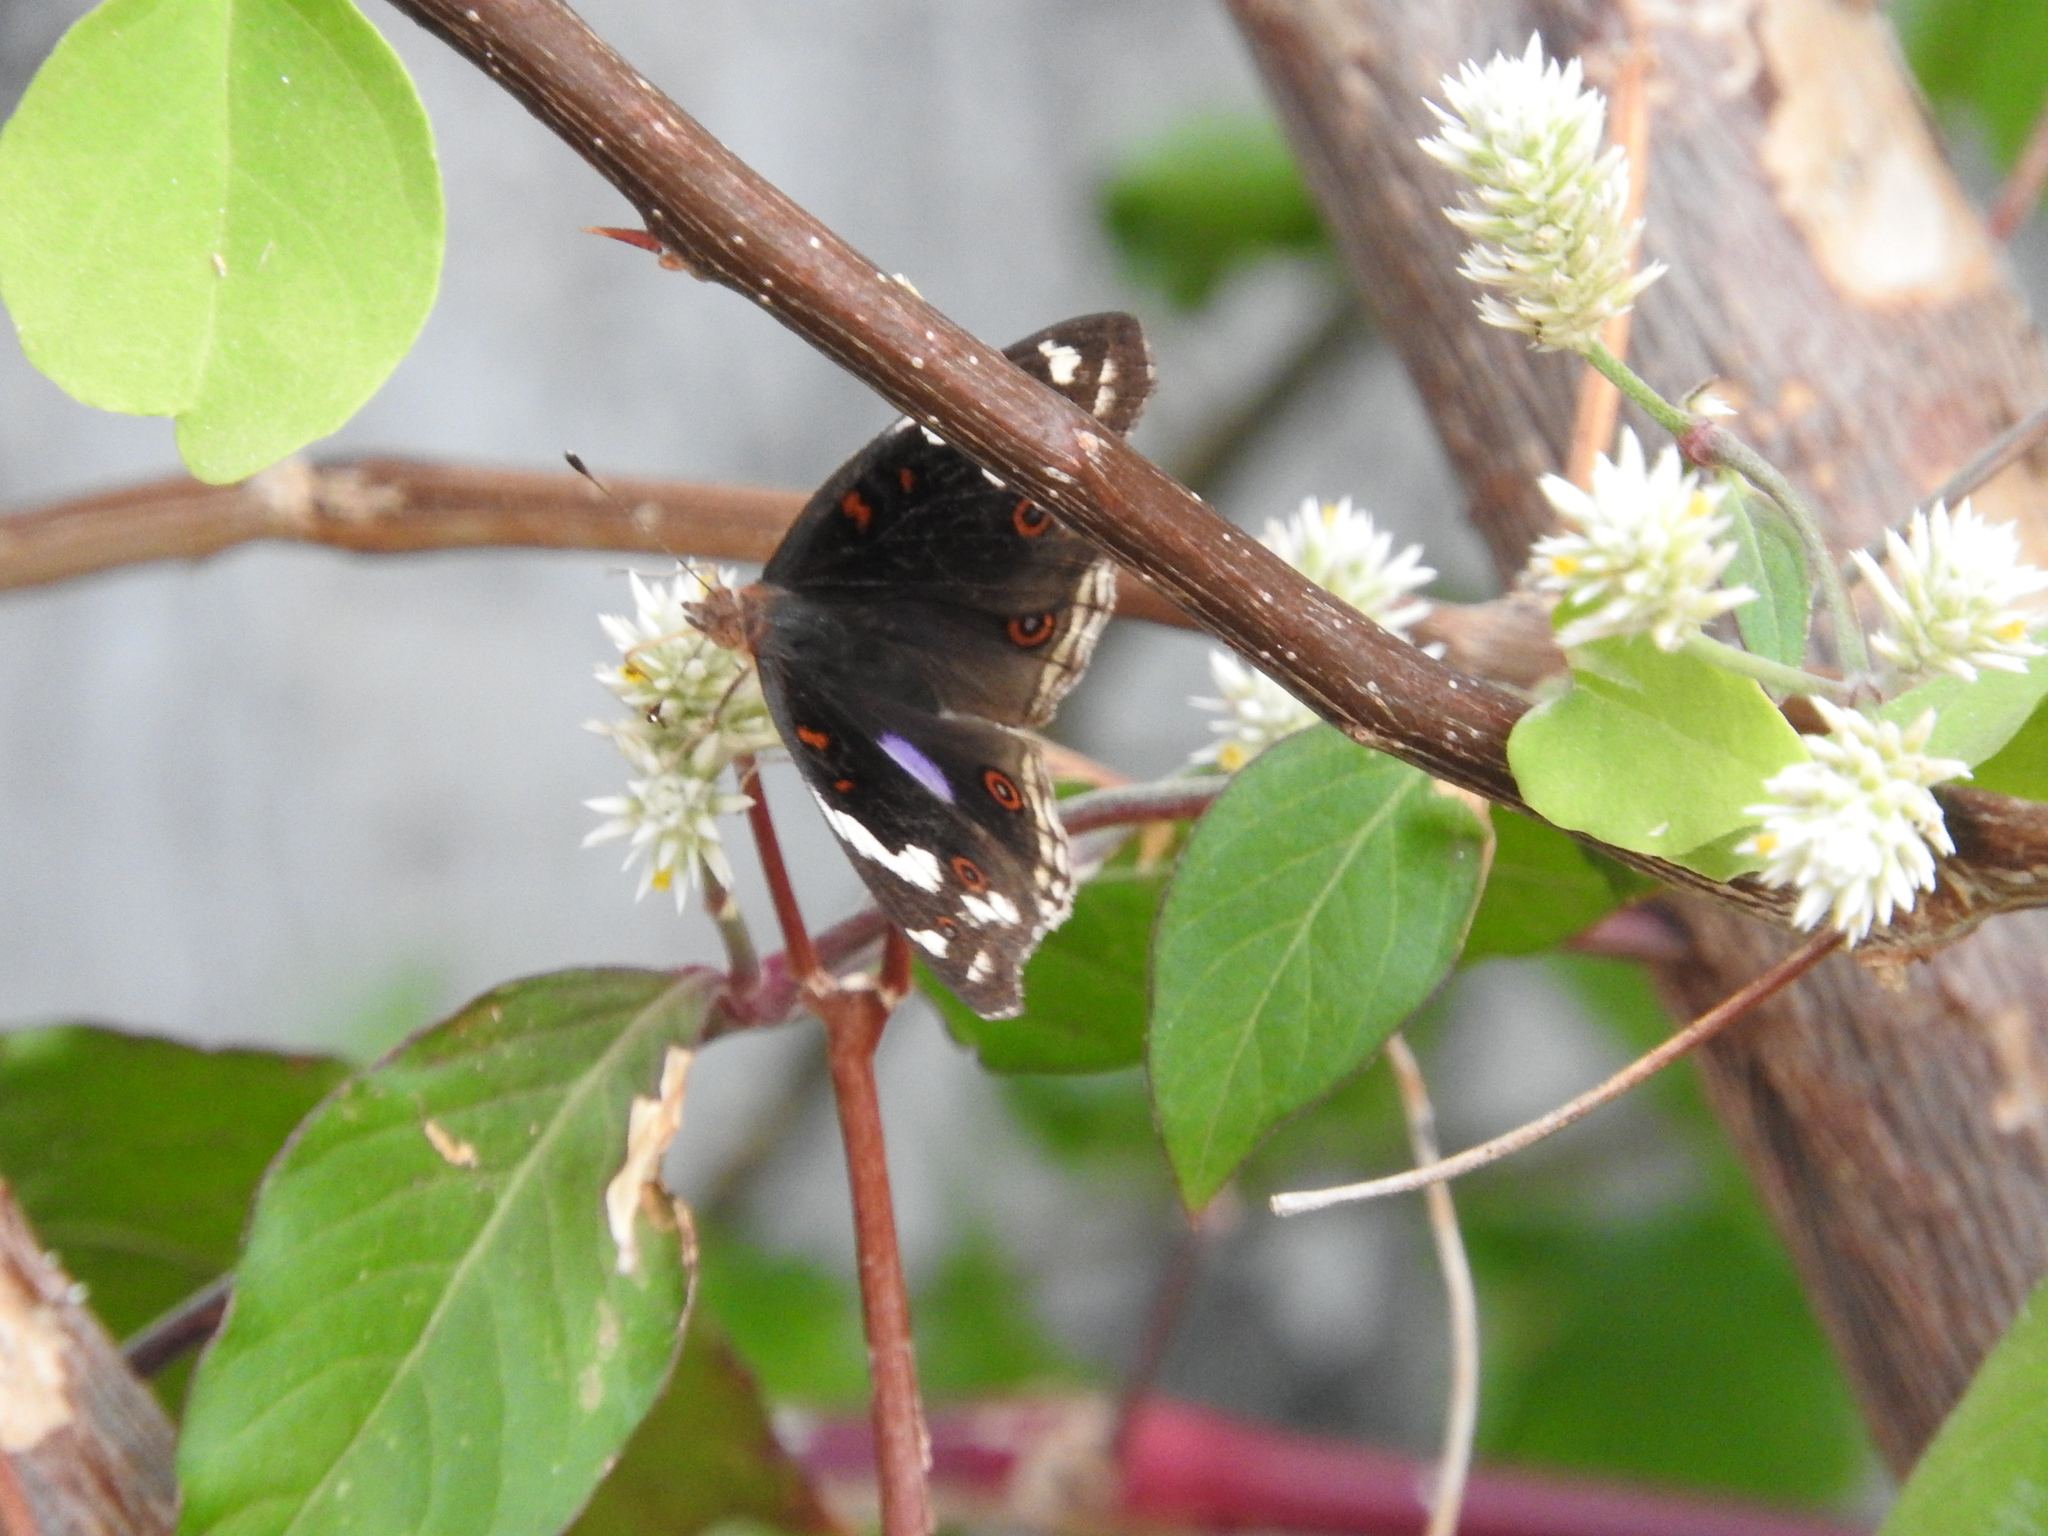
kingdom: Animalia
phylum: Arthropoda
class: Insecta
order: Lepidoptera
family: Nymphalidae
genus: Junonia
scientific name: Junonia oenone
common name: Dark blue pansy
